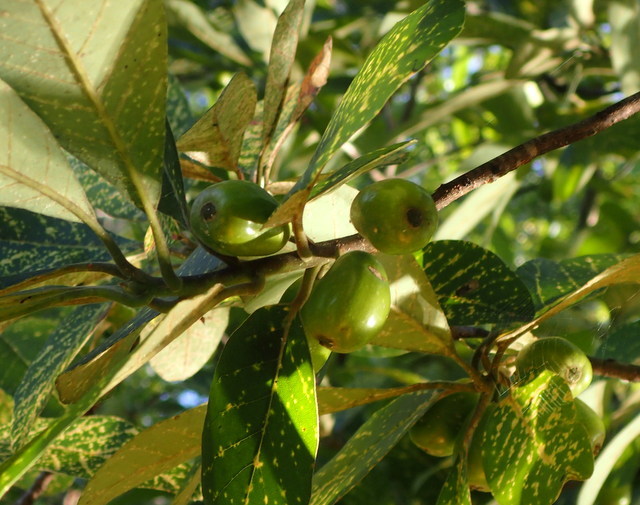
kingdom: Plantae
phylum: Tracheophyta
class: Magnoliopsida
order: Cornales
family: Nyssaceae
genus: Nyssa
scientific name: Nyssa ogeche
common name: Ogeechee tupelo
